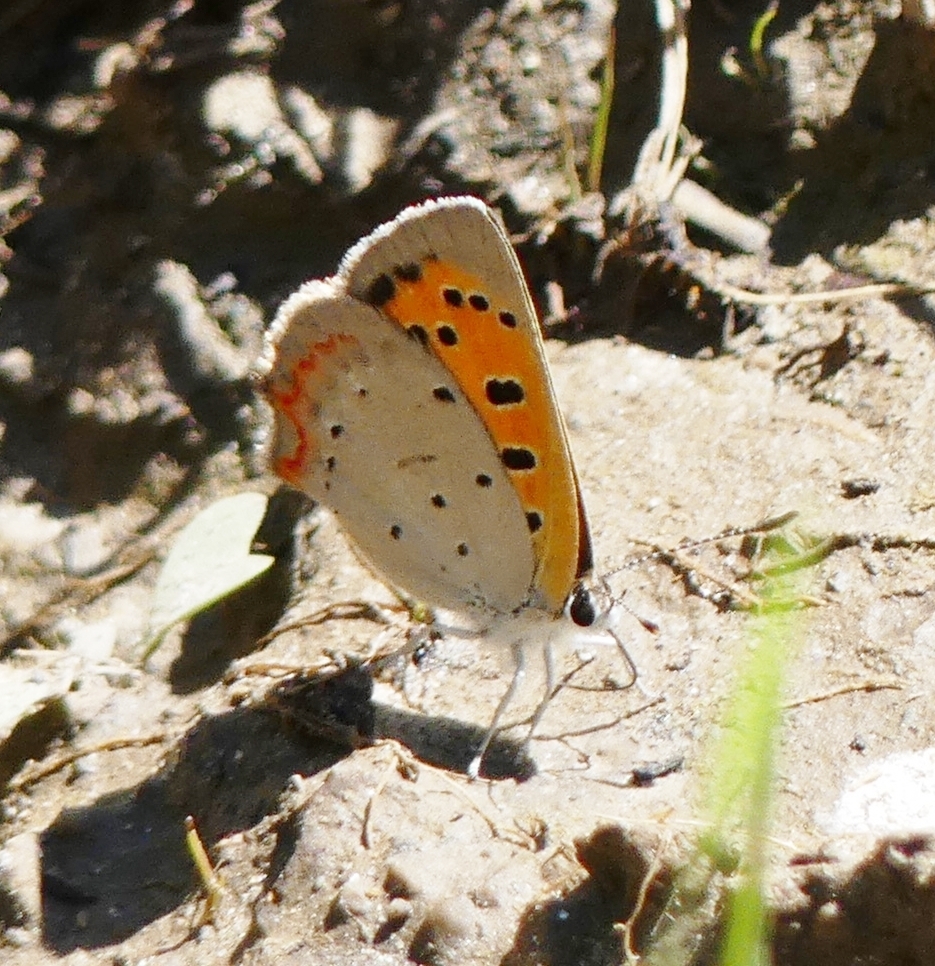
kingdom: Animalia
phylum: Arthropoda
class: Insecta
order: Lepidoptera
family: Lycaenidae
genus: Lycaena
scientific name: Lycaena hypophlaeas
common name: American copper
